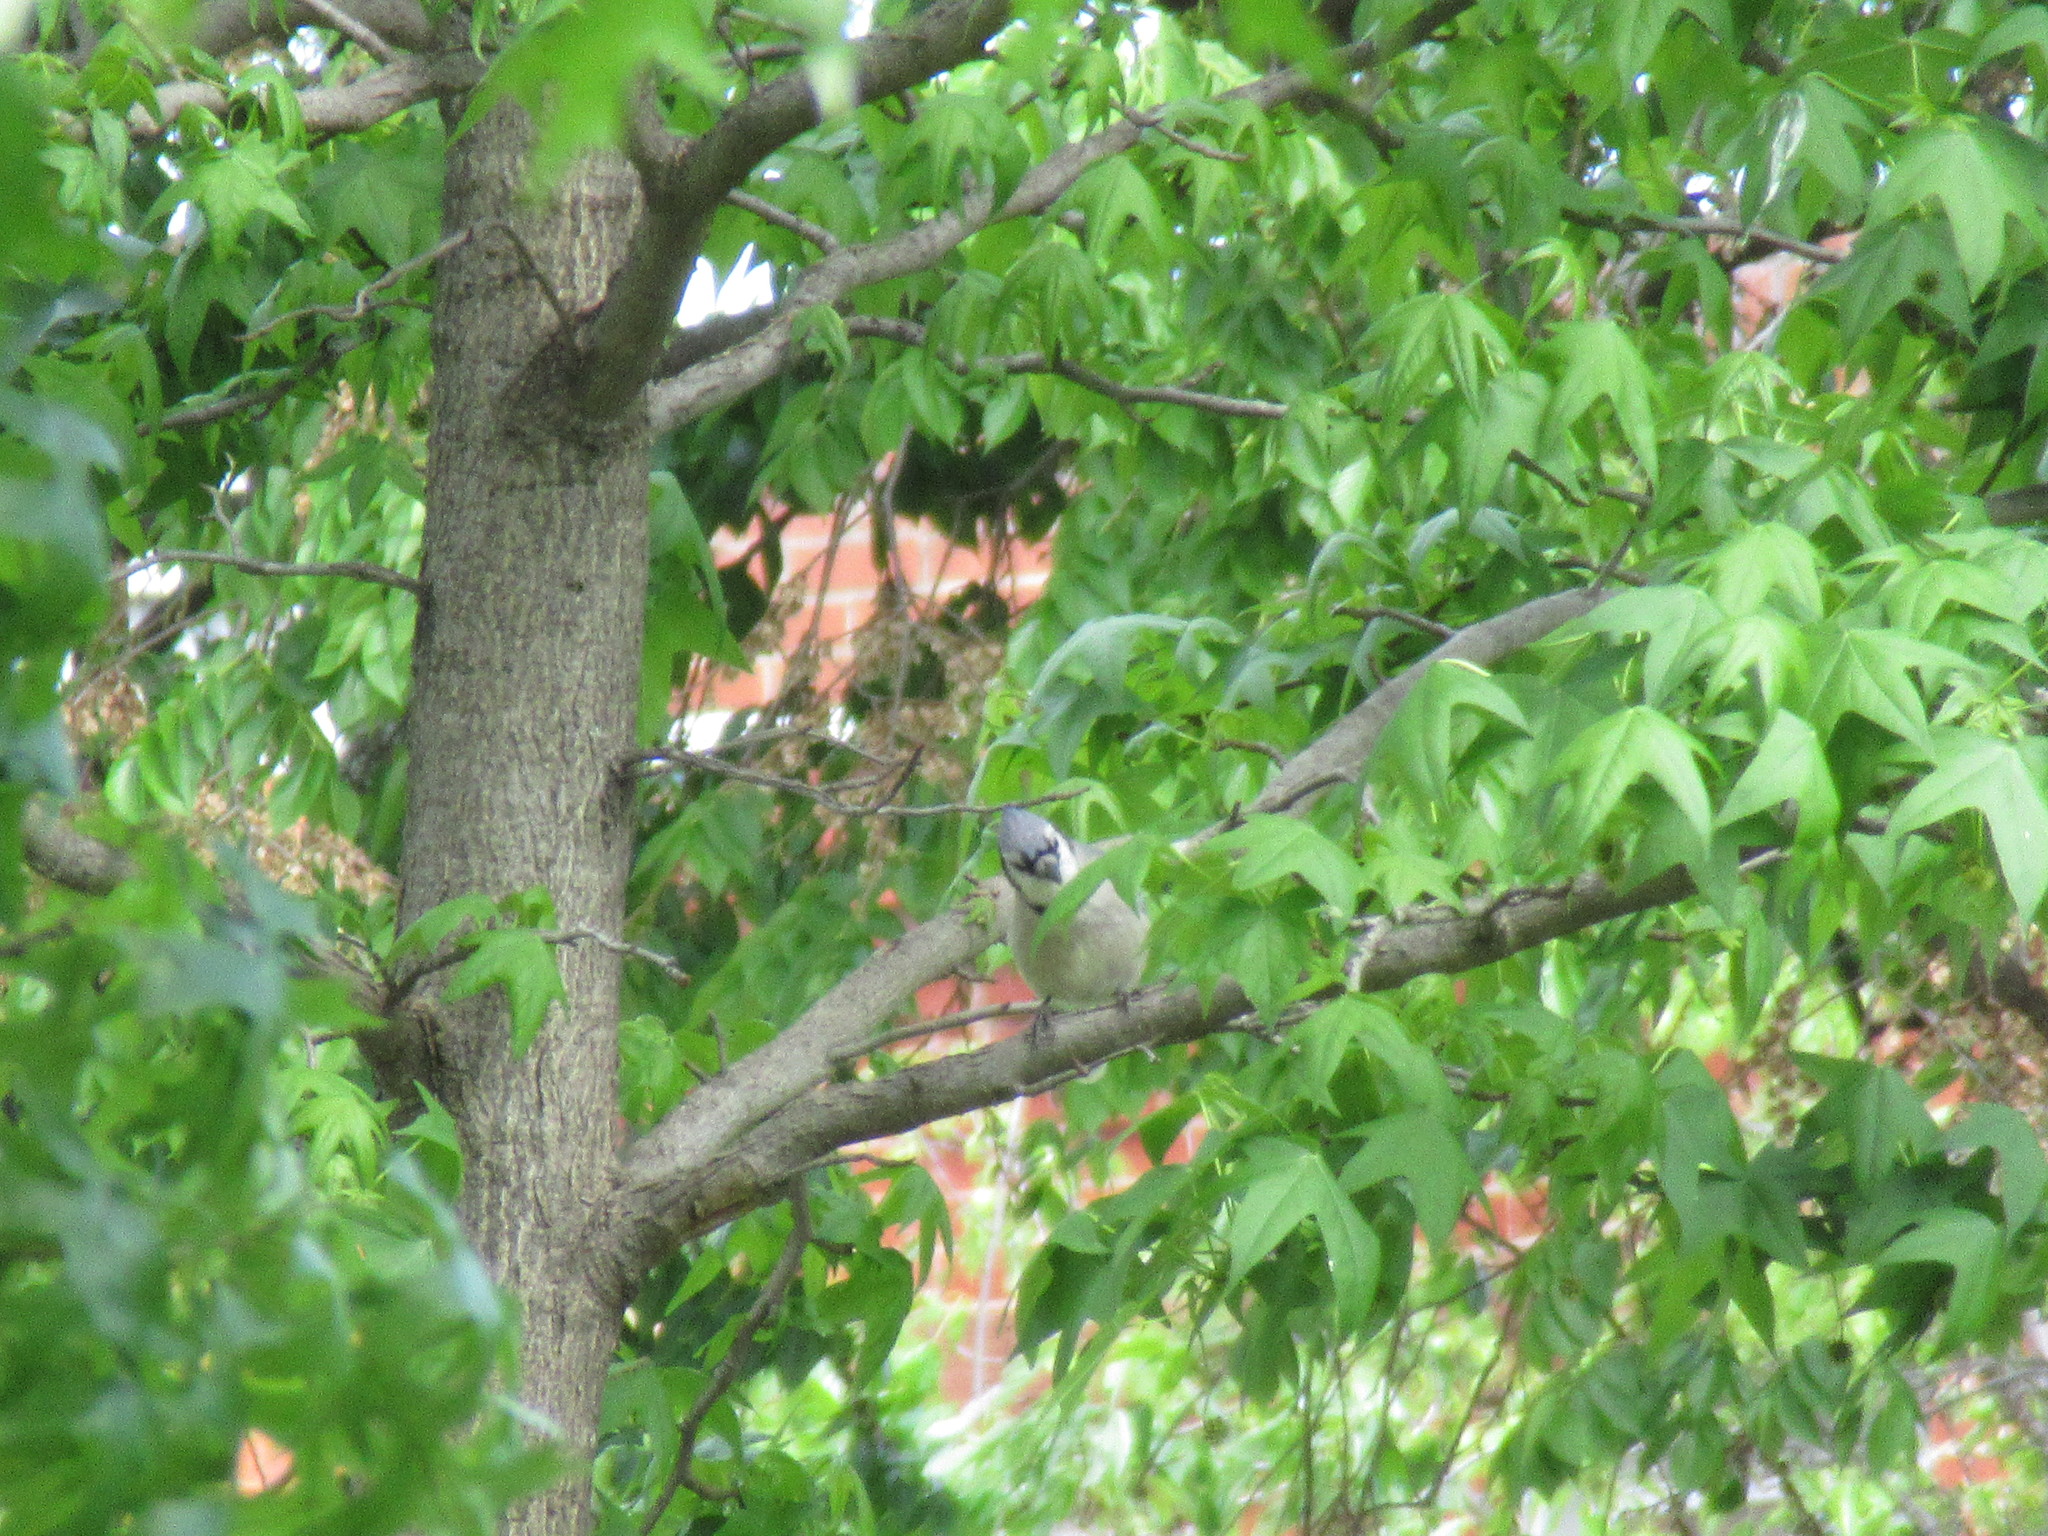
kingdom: Animalia
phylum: Chordata
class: Aves
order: Passeriformes
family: Corvidae
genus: Cyanocitta
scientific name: Cyanocitta cristata
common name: Blue jay
